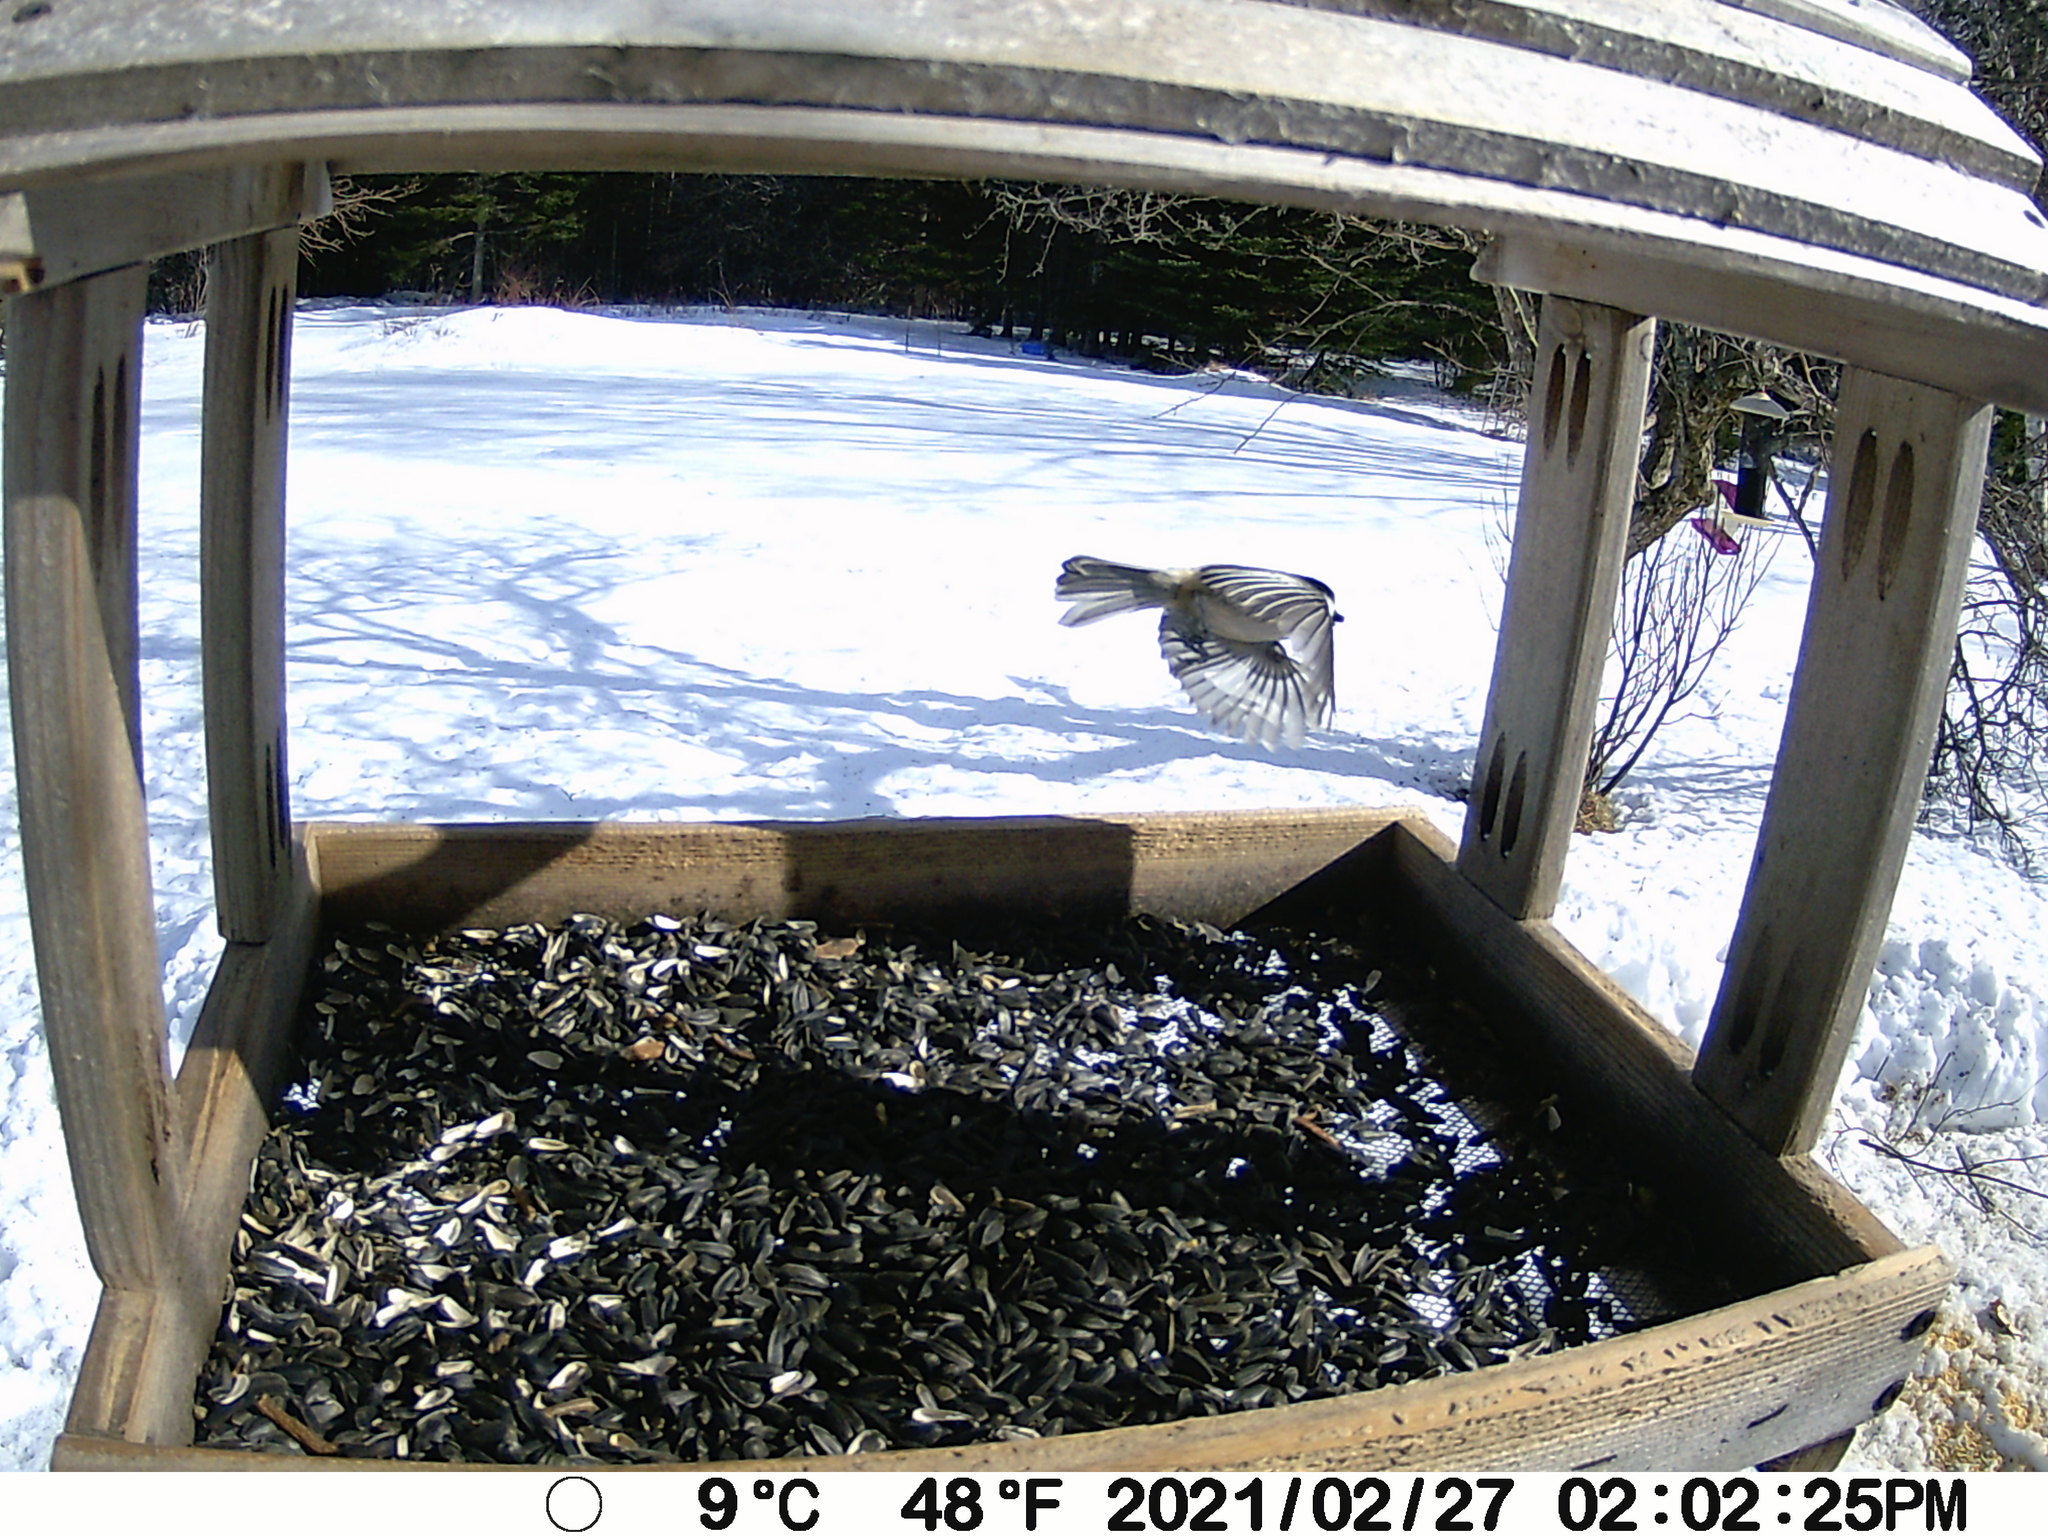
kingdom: Animalia
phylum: Chordata
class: Aves
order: Passeriformes
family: Paridae
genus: Poecile
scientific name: Poecile atricapillus
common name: Black-capped chickadee
